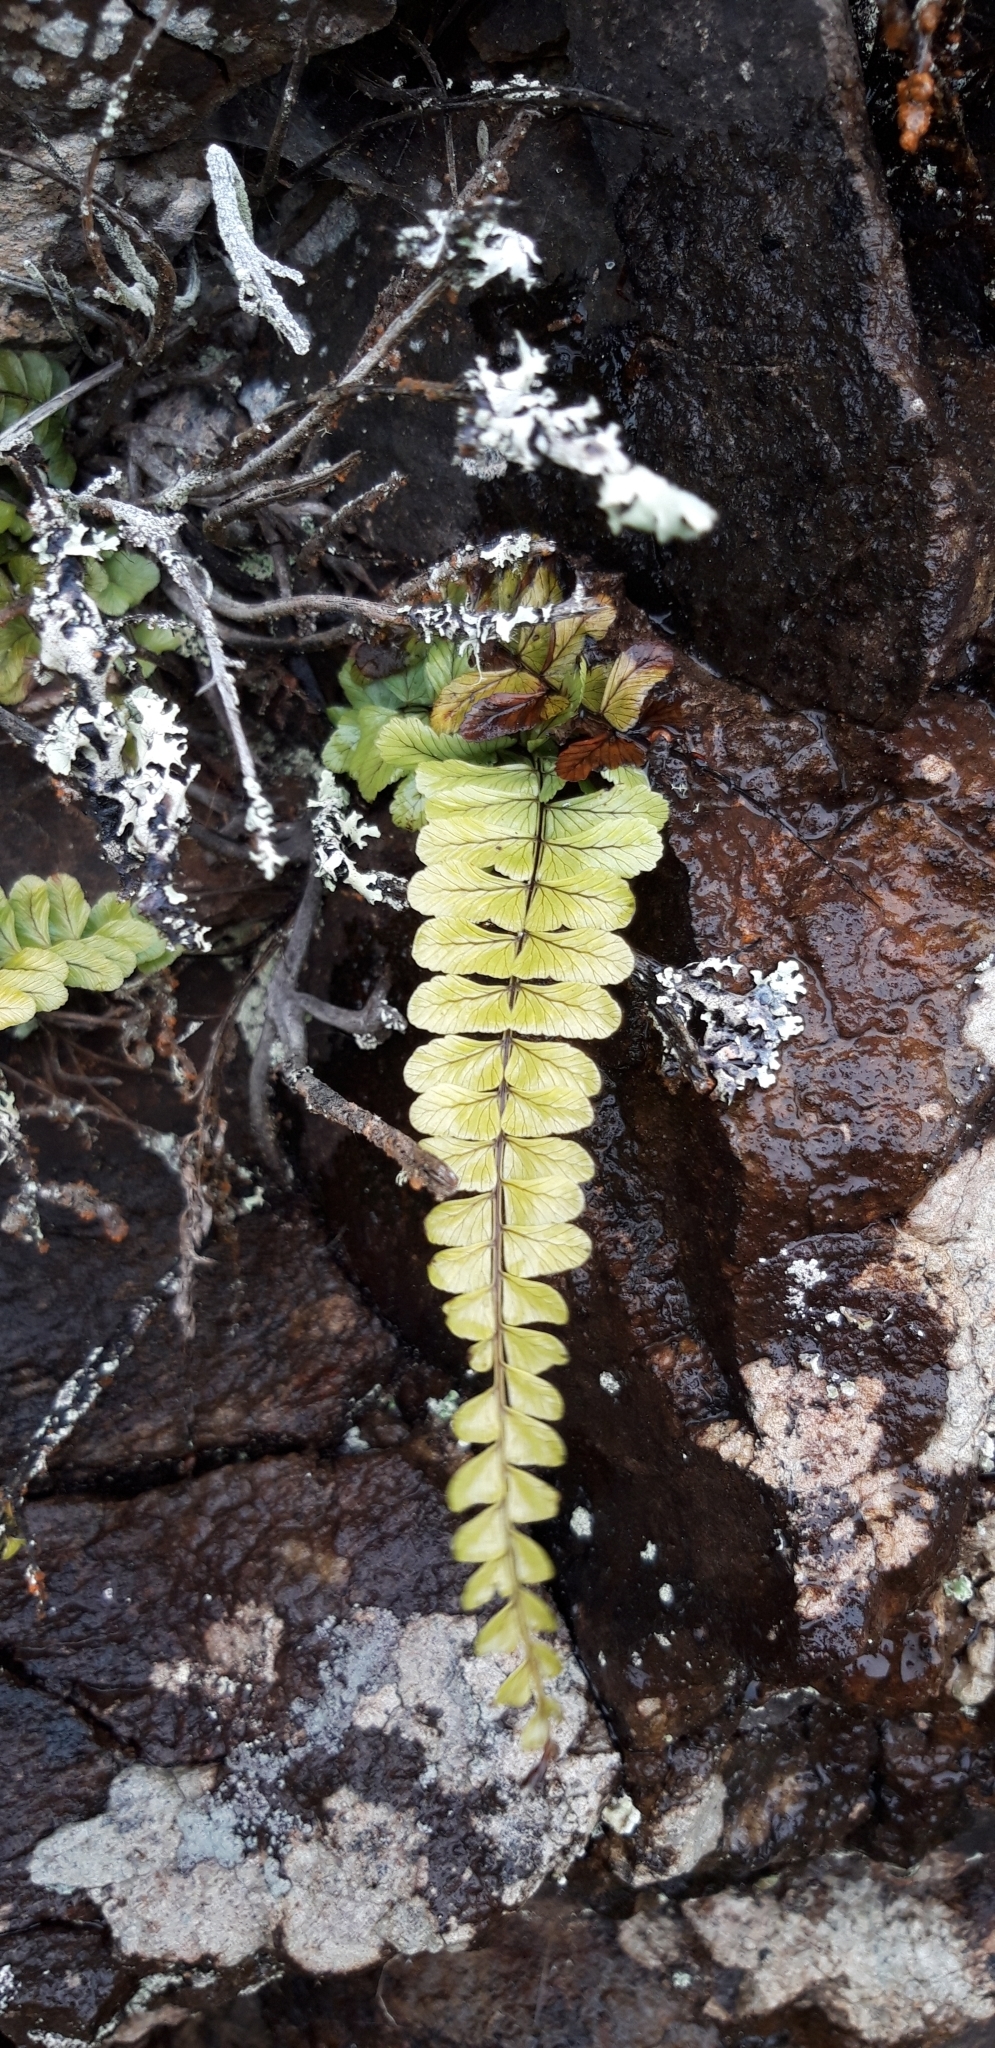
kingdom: Plantae
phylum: Tracheophyta
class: Polypodiopsida
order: Polypodiales
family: Aspleniaceae
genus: Asplenium
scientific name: Asplenium lunulatum
